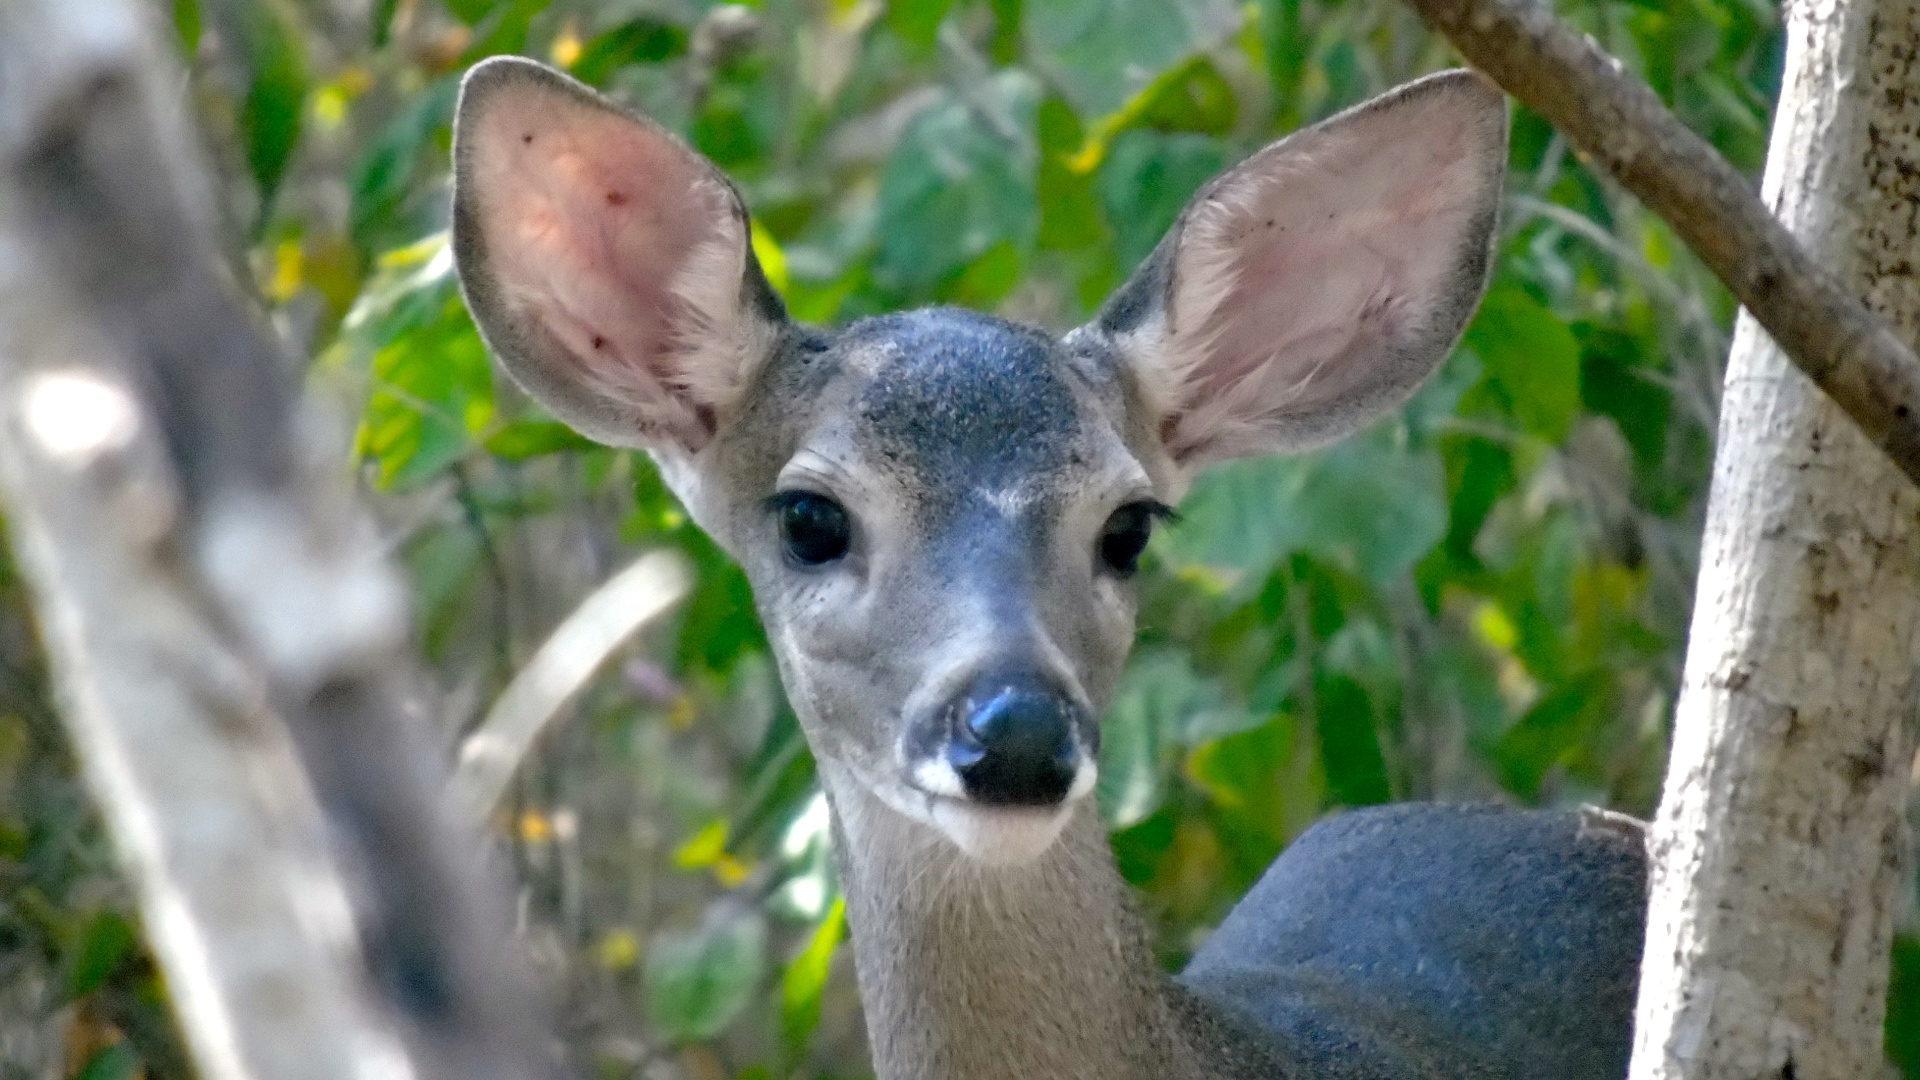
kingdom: Animalia
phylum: Chordata
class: Mammalia
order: Artiodactyla
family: Cervidae
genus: Odocoileus
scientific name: Odocoileus virginianus
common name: White-tailed deer
